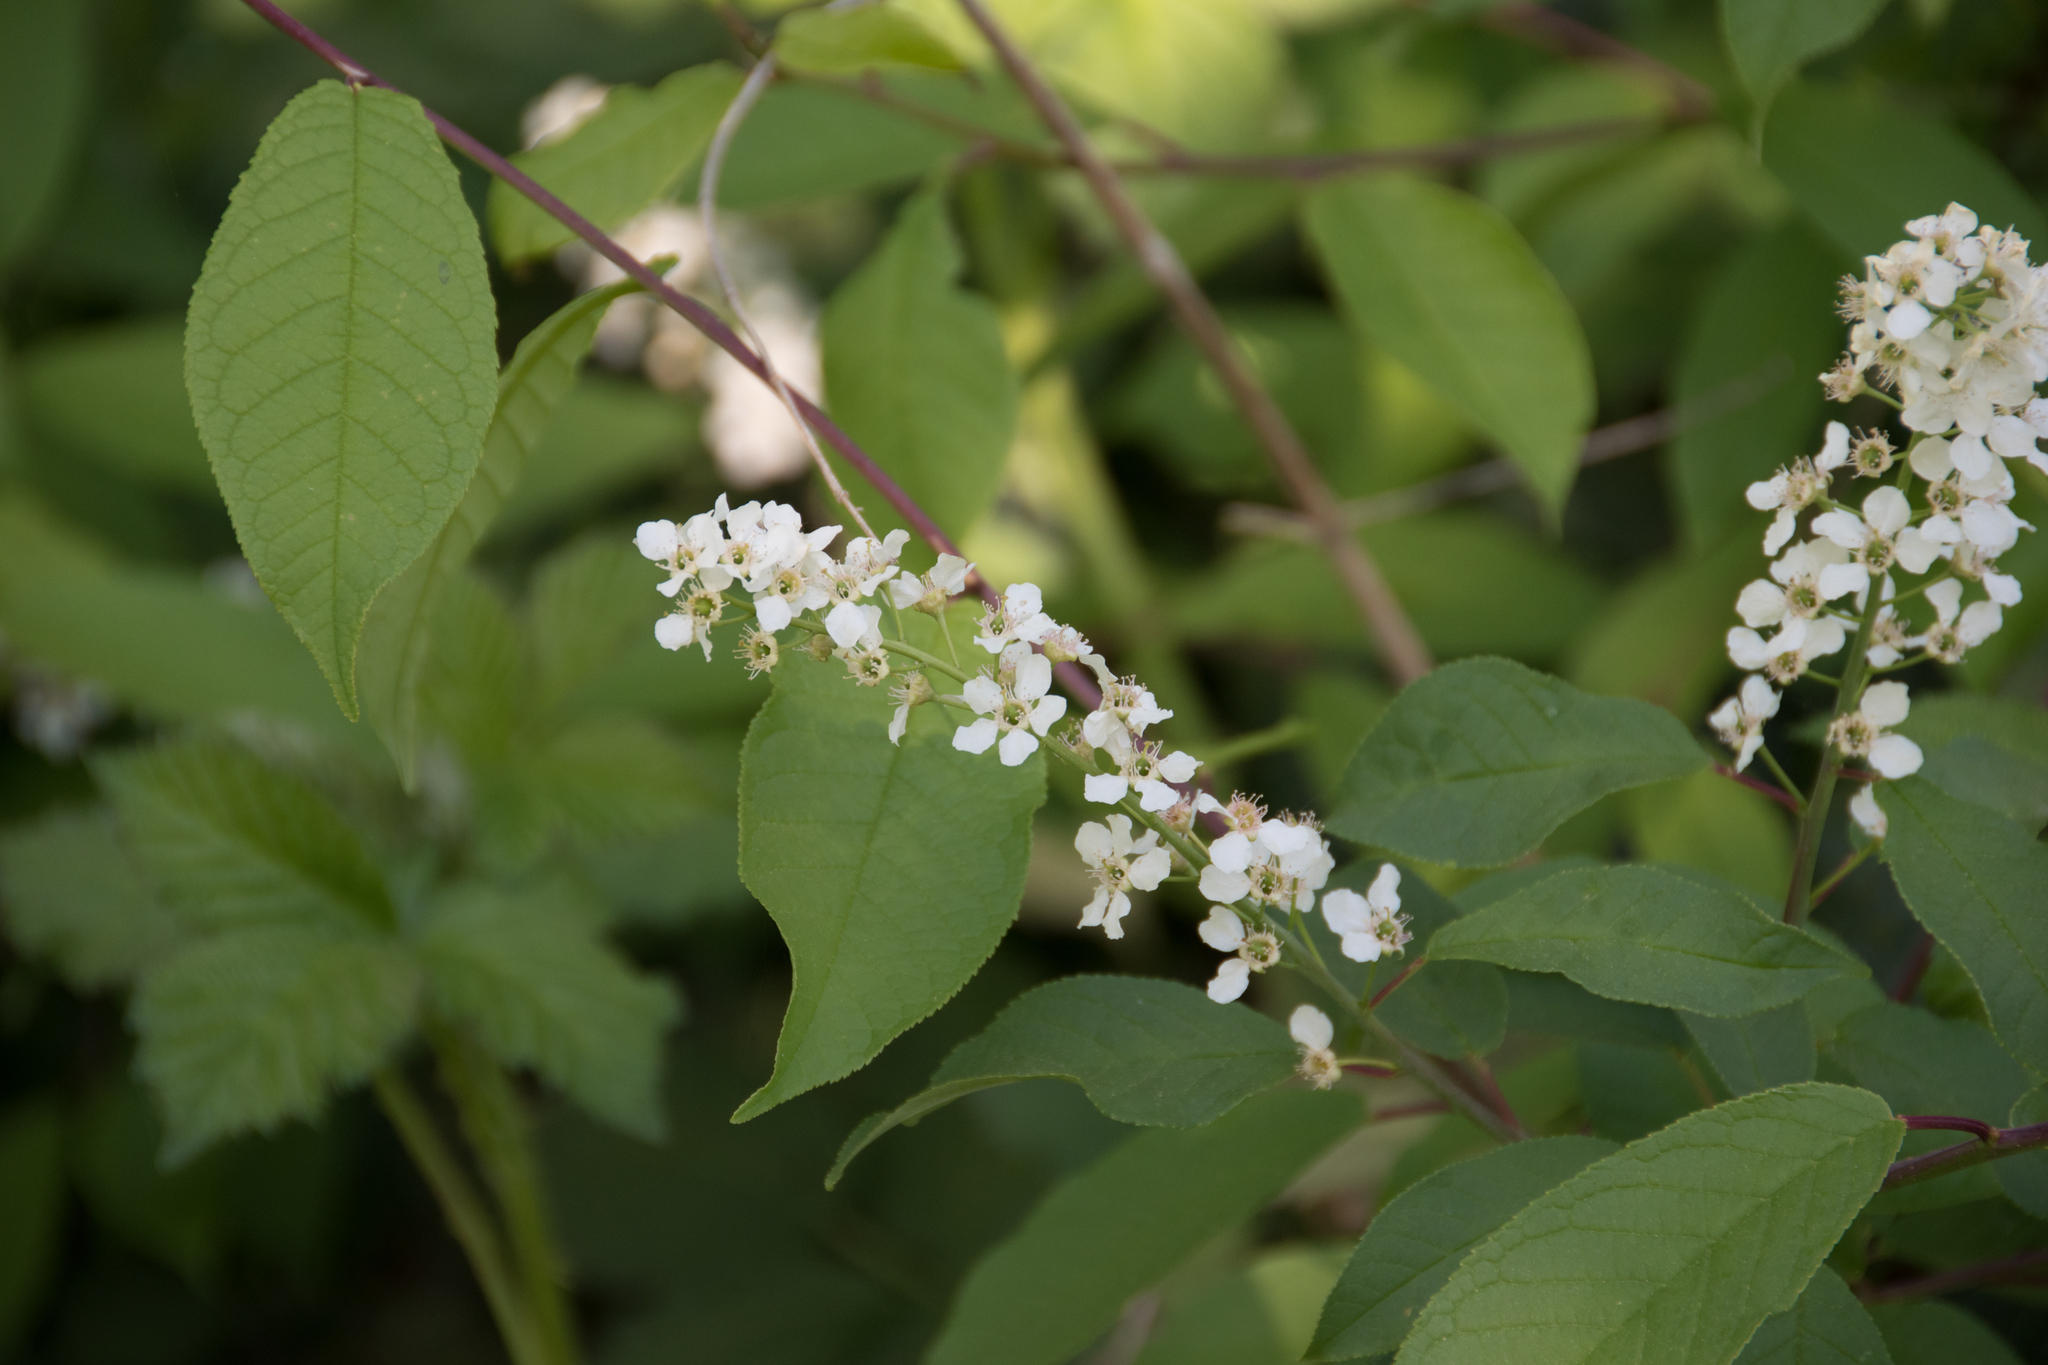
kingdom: Plantae
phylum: Tracheophyta
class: Magnoliopsida
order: Rosales
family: Rosaceae
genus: Prunus
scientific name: Prunus padus
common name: Bird cherry
